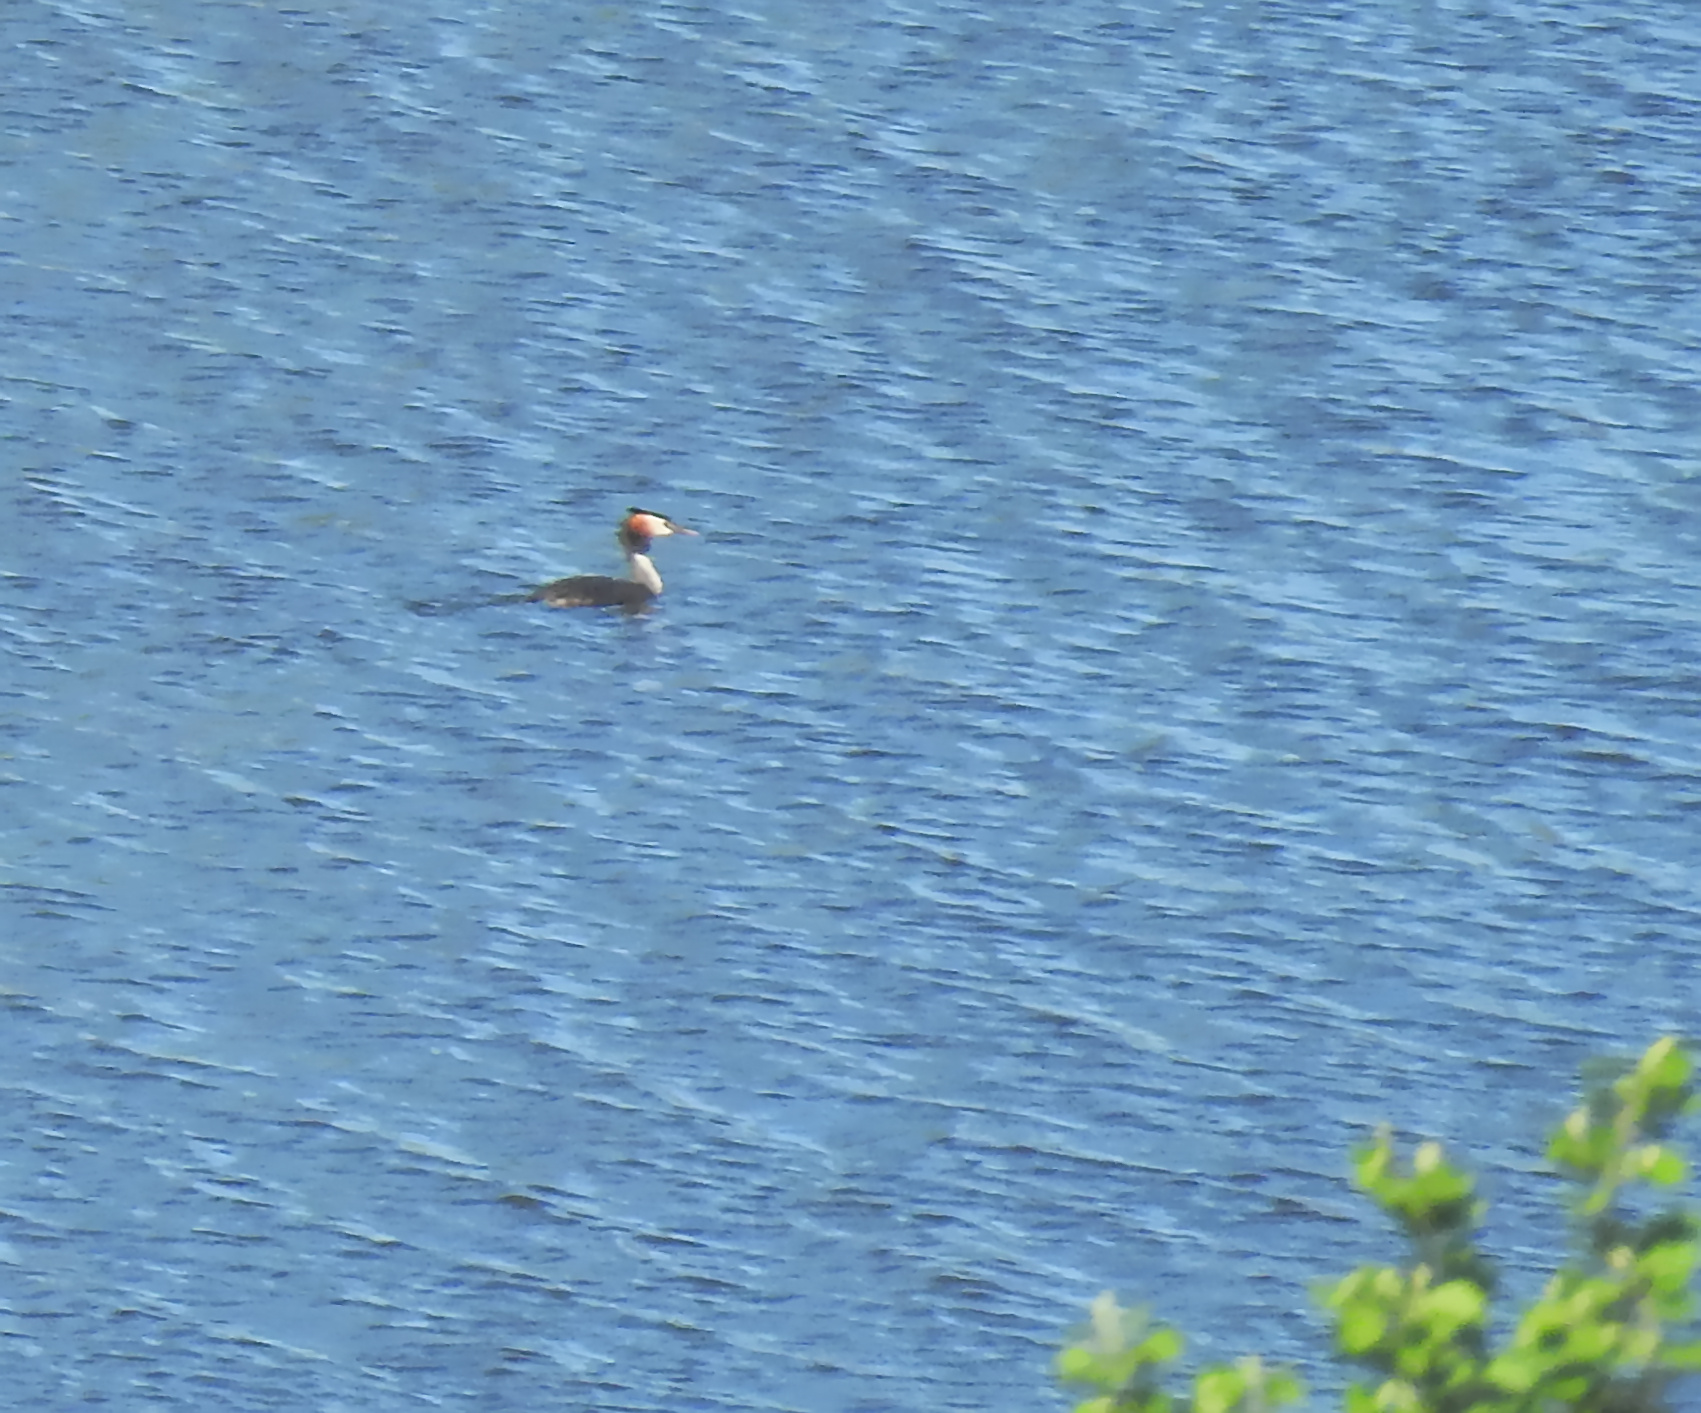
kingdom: Animalia
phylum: Chordata
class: Aves
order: Podicipediformes
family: Podicipedidae
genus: Podiceps
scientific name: Podiceps cristatus
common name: Great crested grebe
